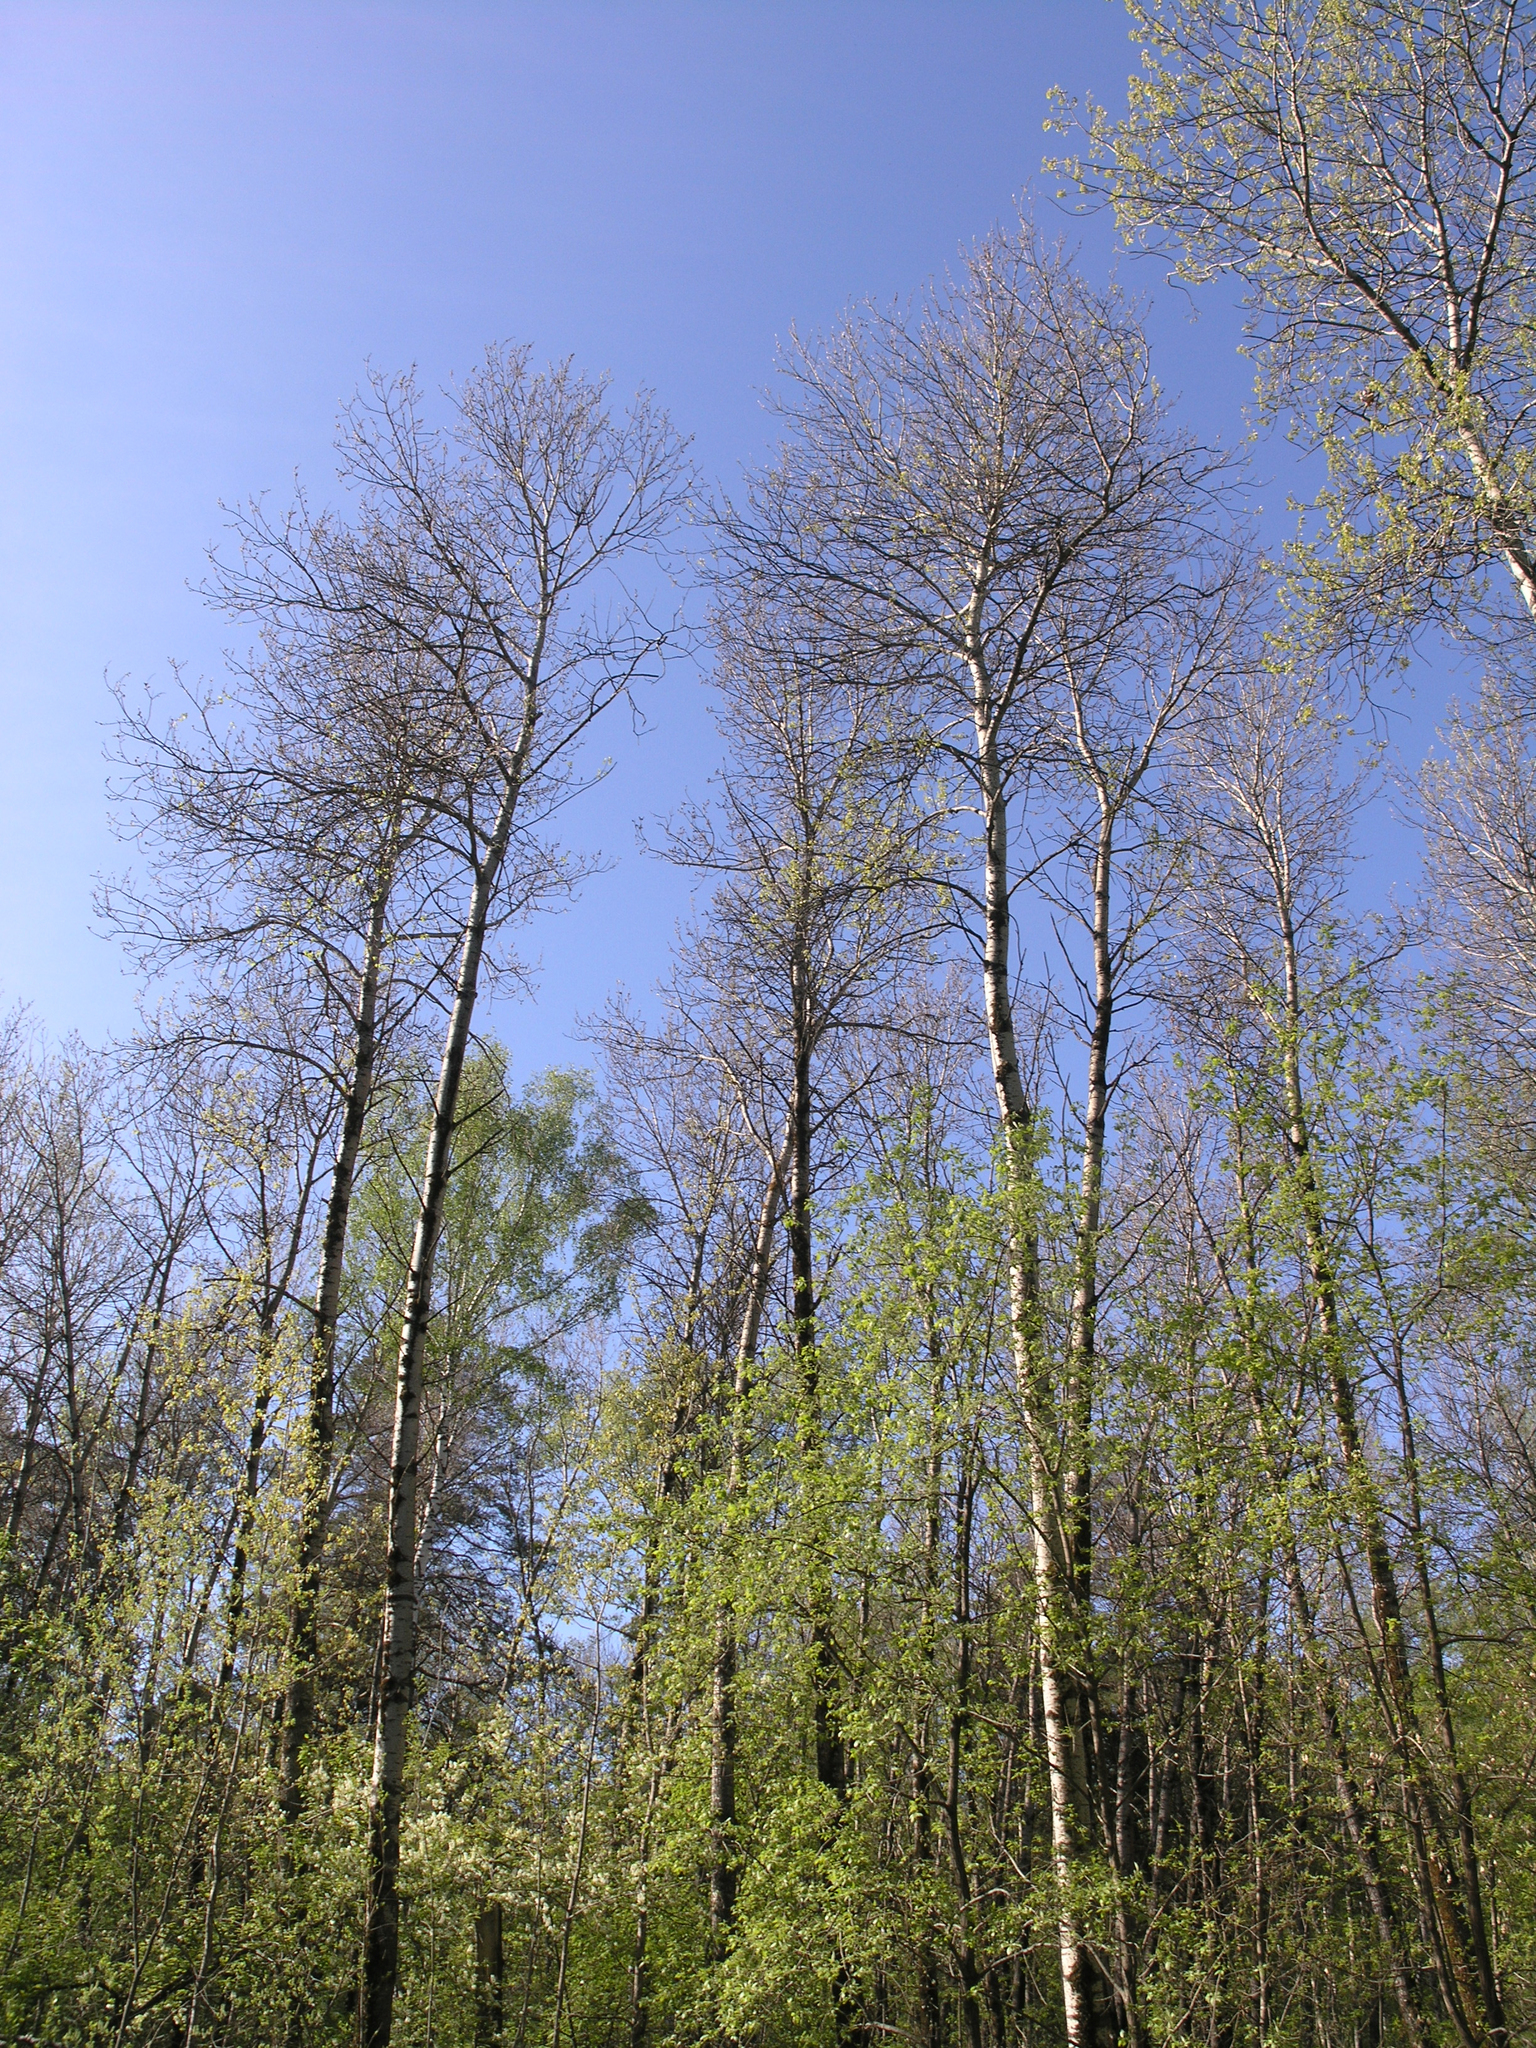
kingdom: Plantae
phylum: Tracheophyta
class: Magnoliopsida
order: Malpighiales
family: Salicaceae
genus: Populus
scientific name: Populus tremula
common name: European aspen
